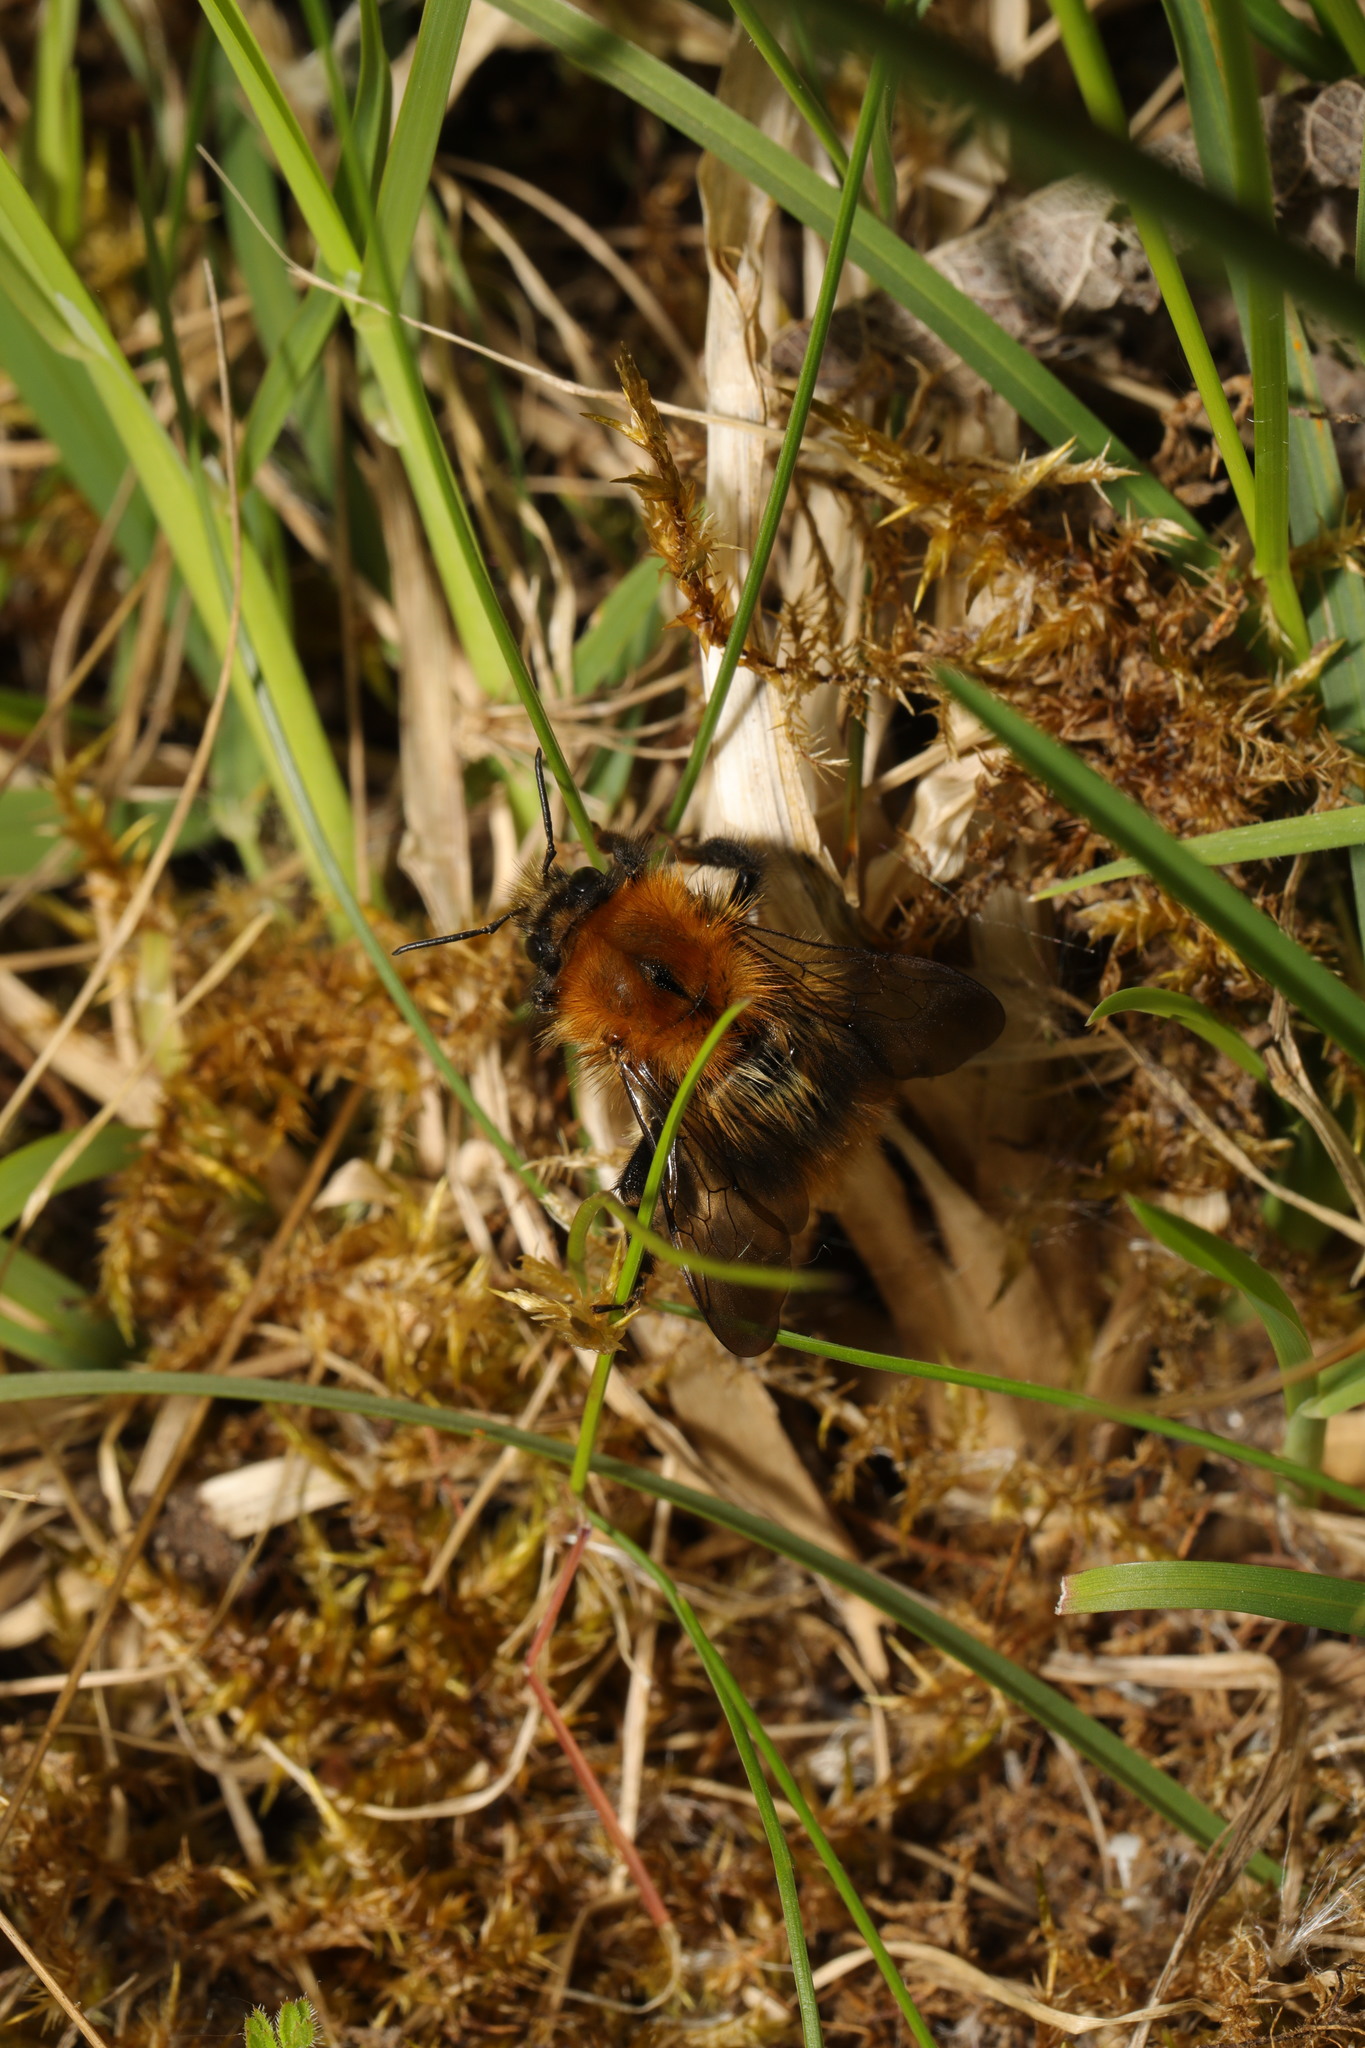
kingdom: Animalia
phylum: Arthropoda
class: Insecta
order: Hymenoptera
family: Apidae
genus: Bombus
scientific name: Bombus pascuorum
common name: Common carder bee
